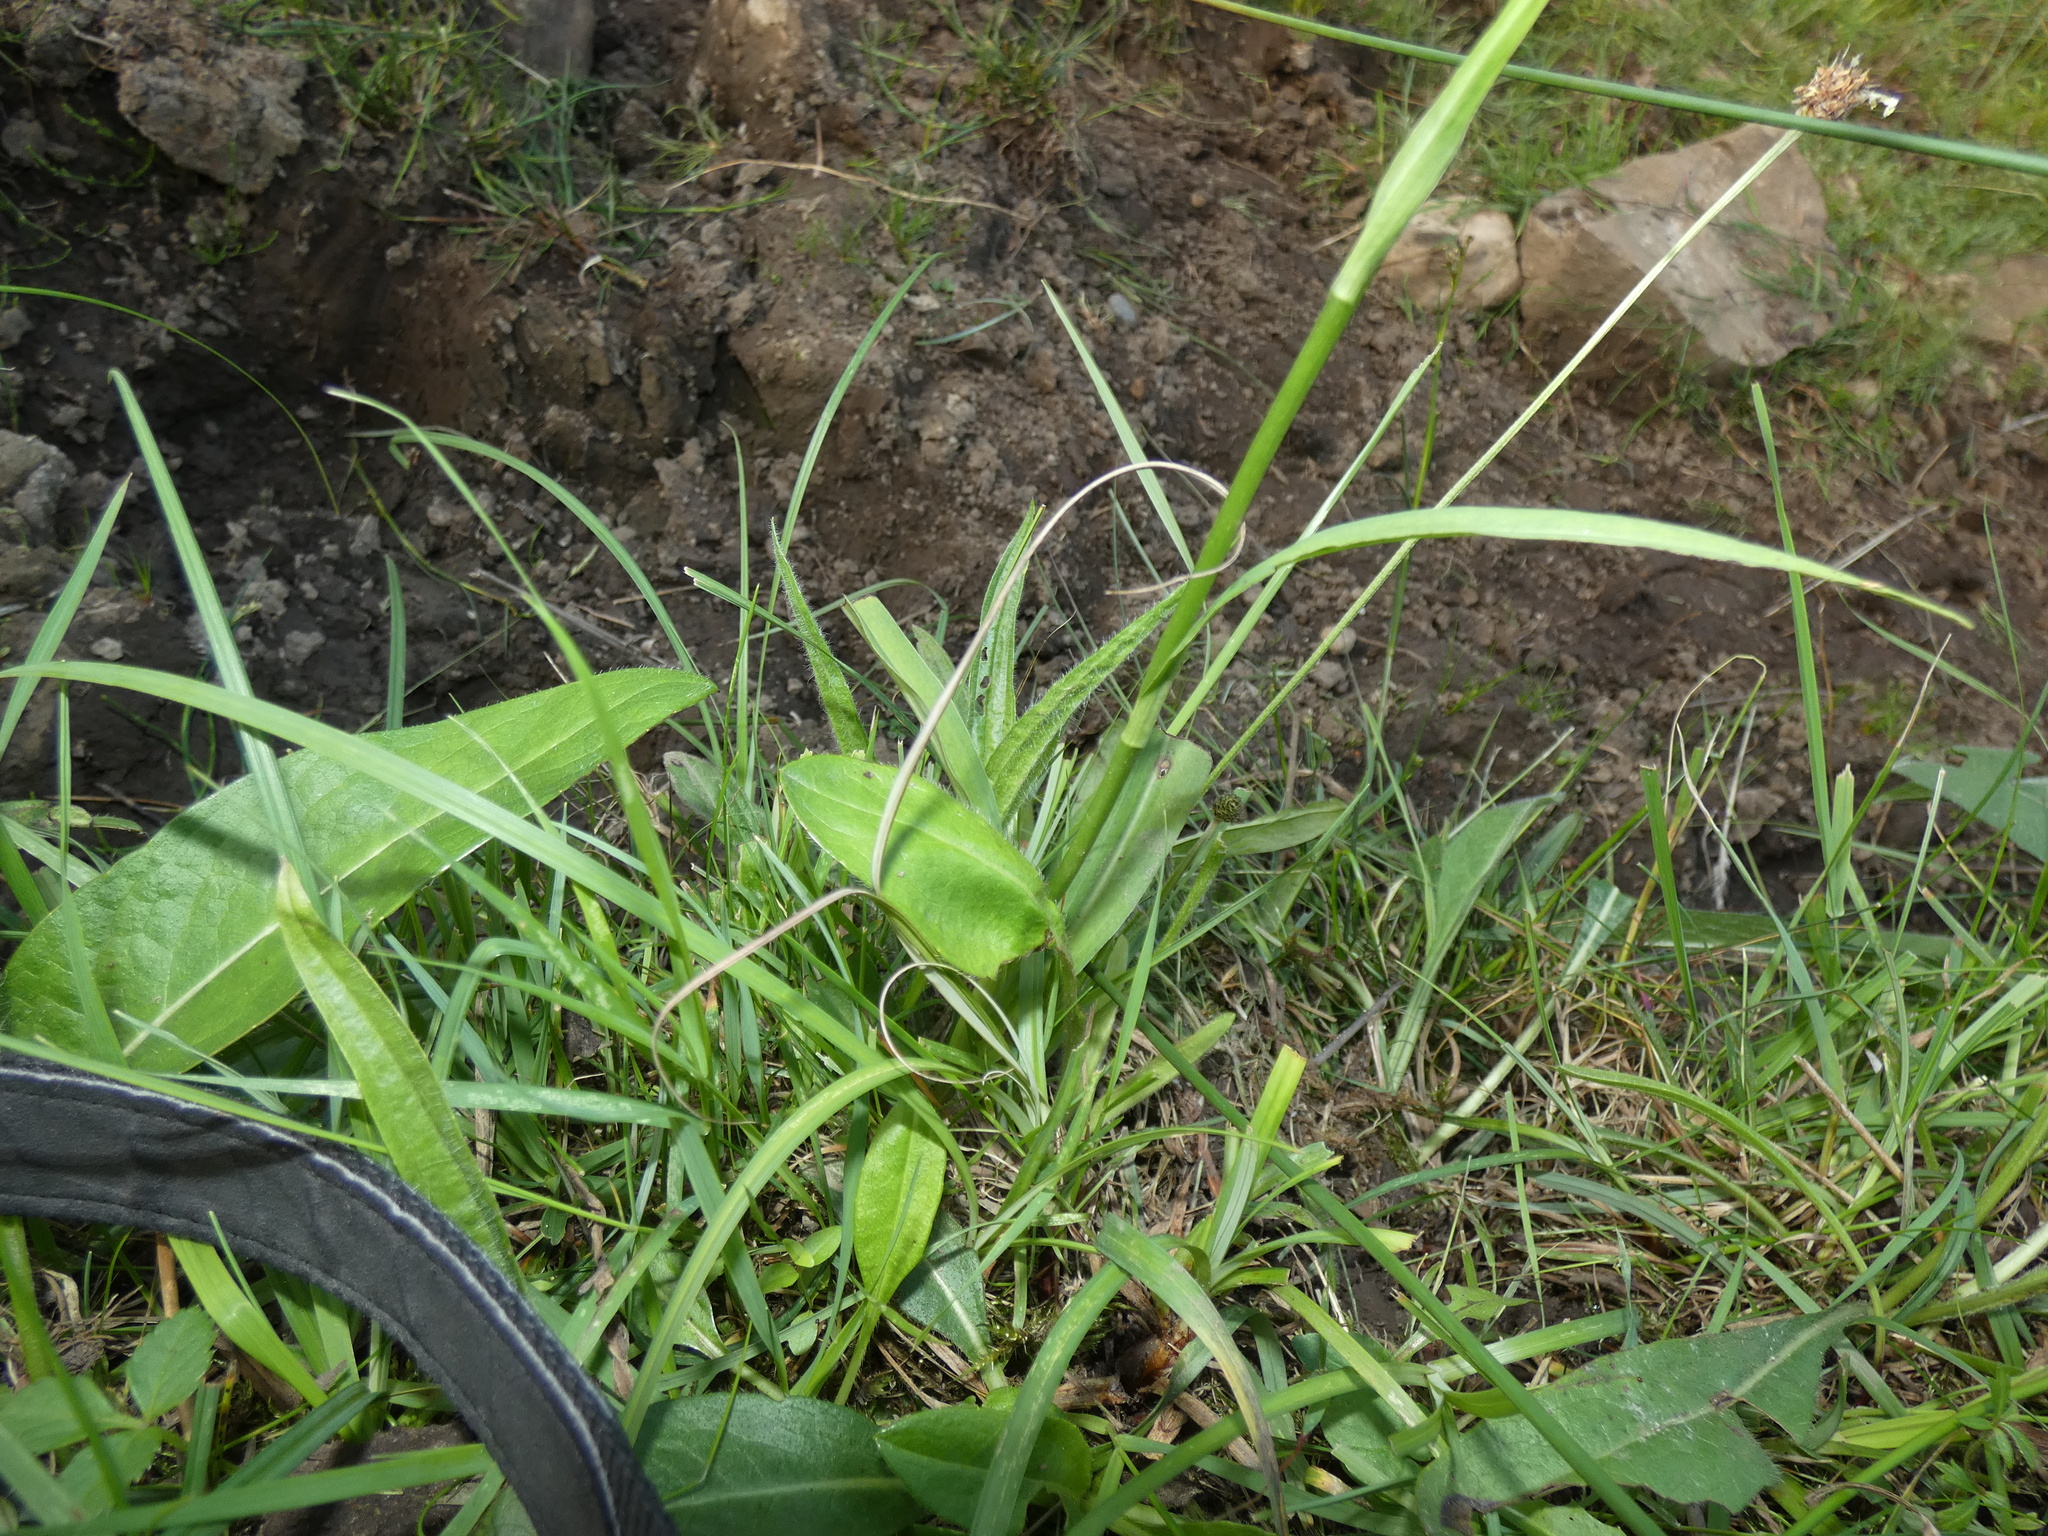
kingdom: Plantae
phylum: Tracheophyta
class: Liliopsida
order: Asparagales
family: Orchidaceae
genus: Dactylorhiza
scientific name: Dactylorhiza maculata
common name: Heath spotted-orchid
